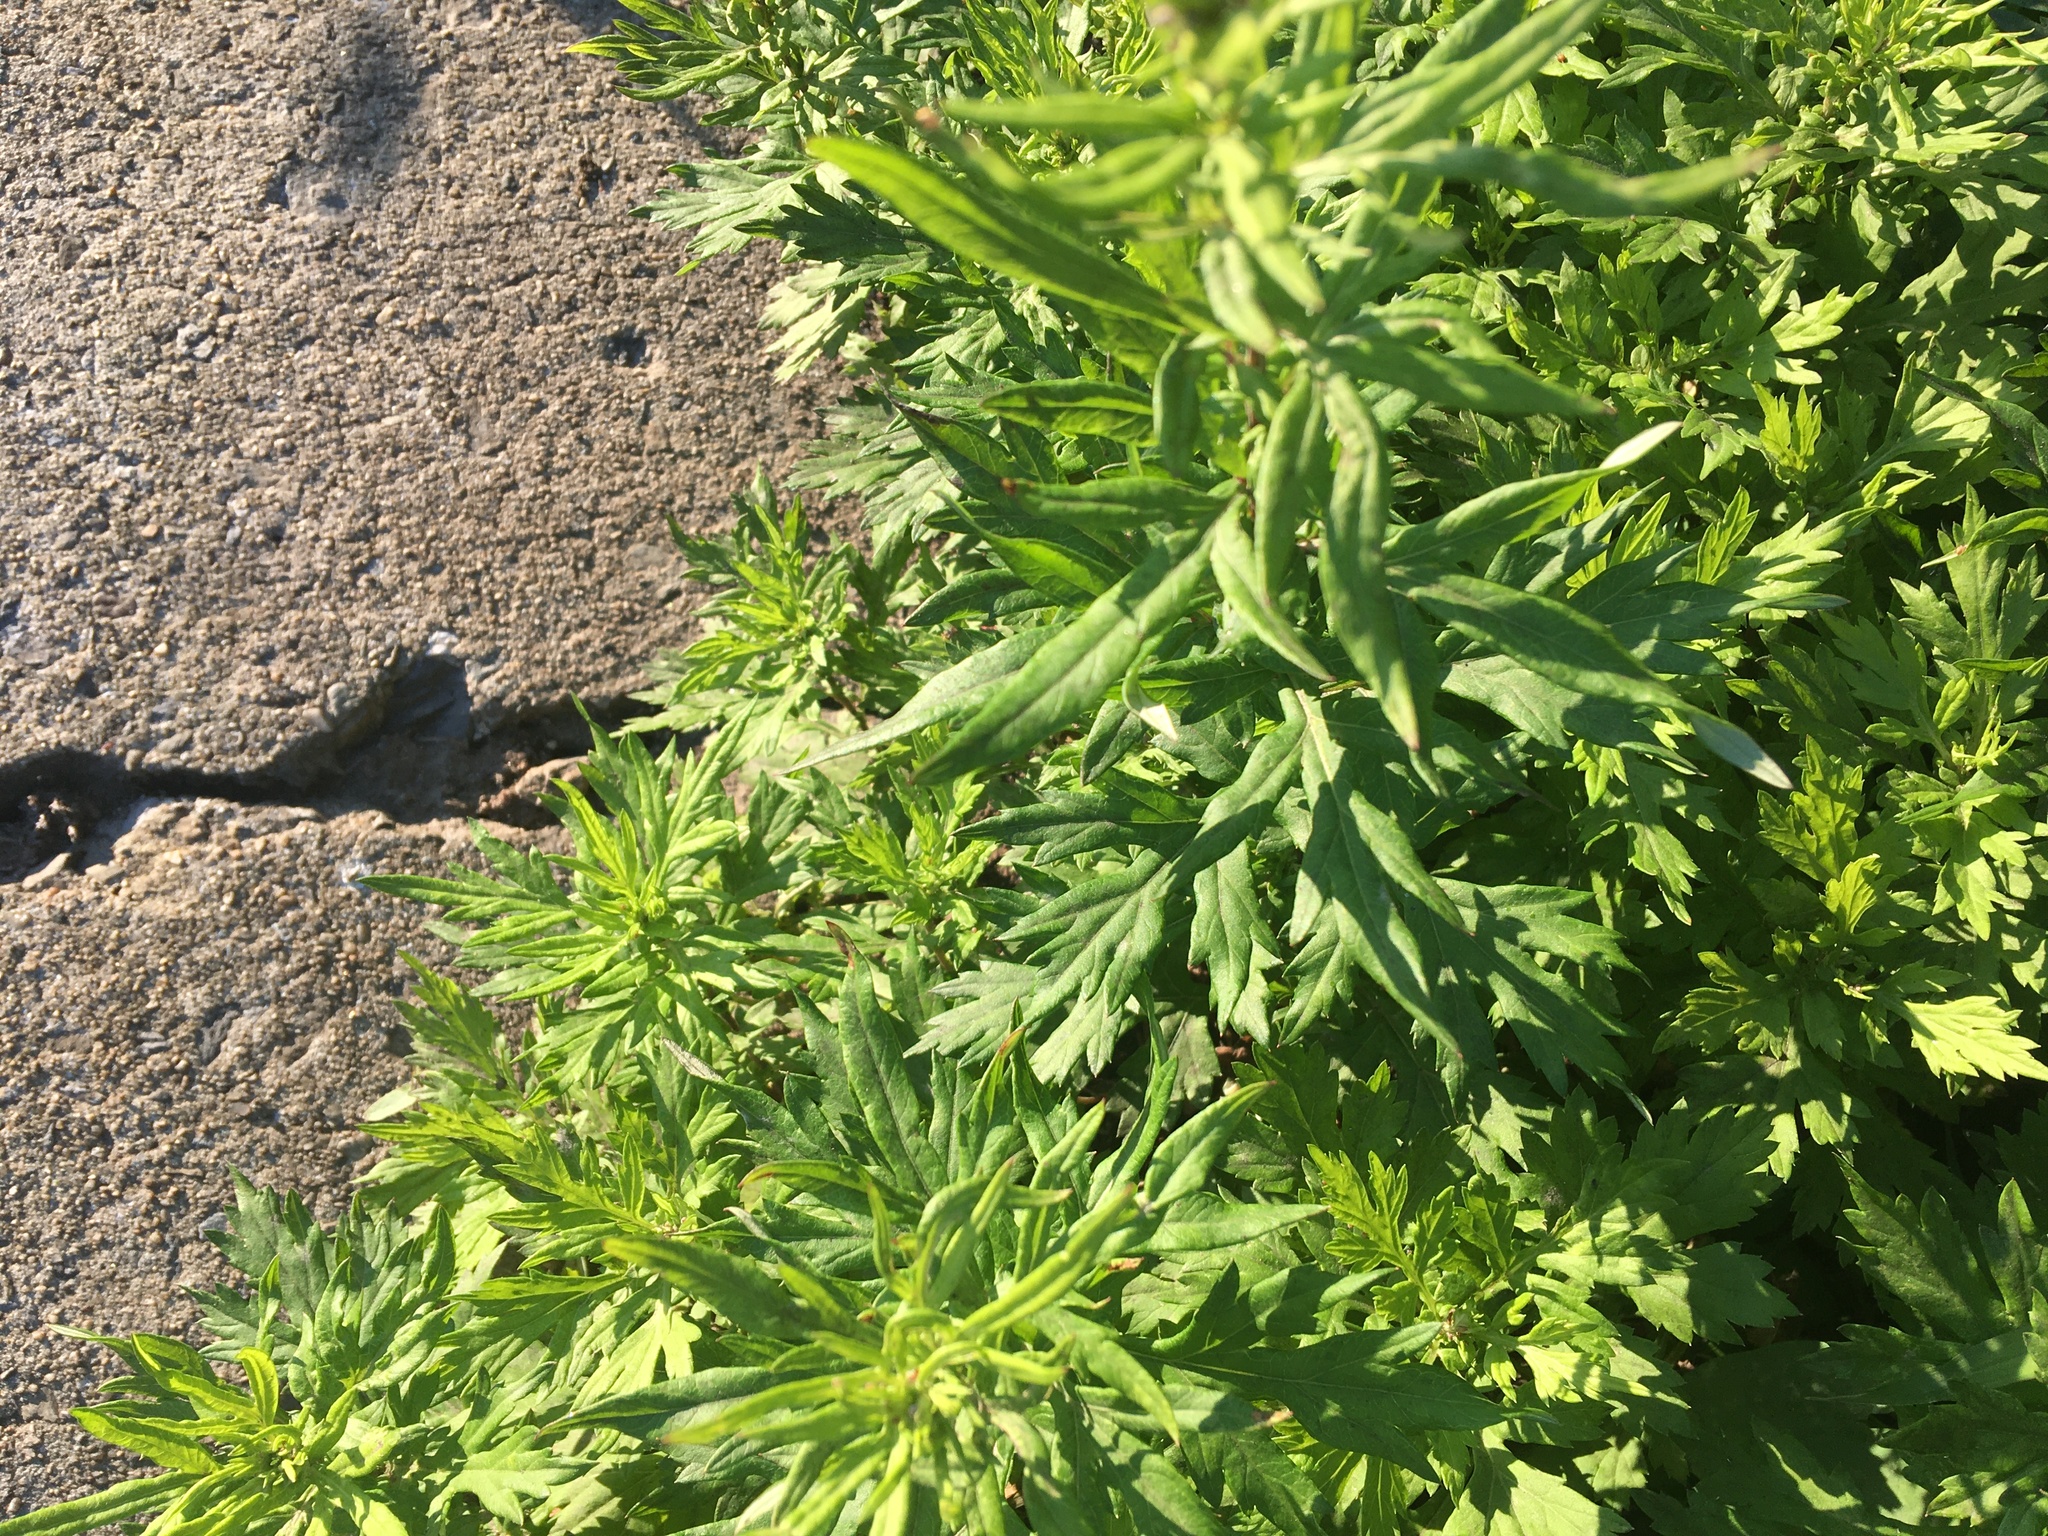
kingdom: Plantae
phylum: Tracheophyta
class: Magnoliopsida
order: Asterales
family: Asteraceae
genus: Artemisia
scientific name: Artemisia vulgaris
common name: Mugwort
